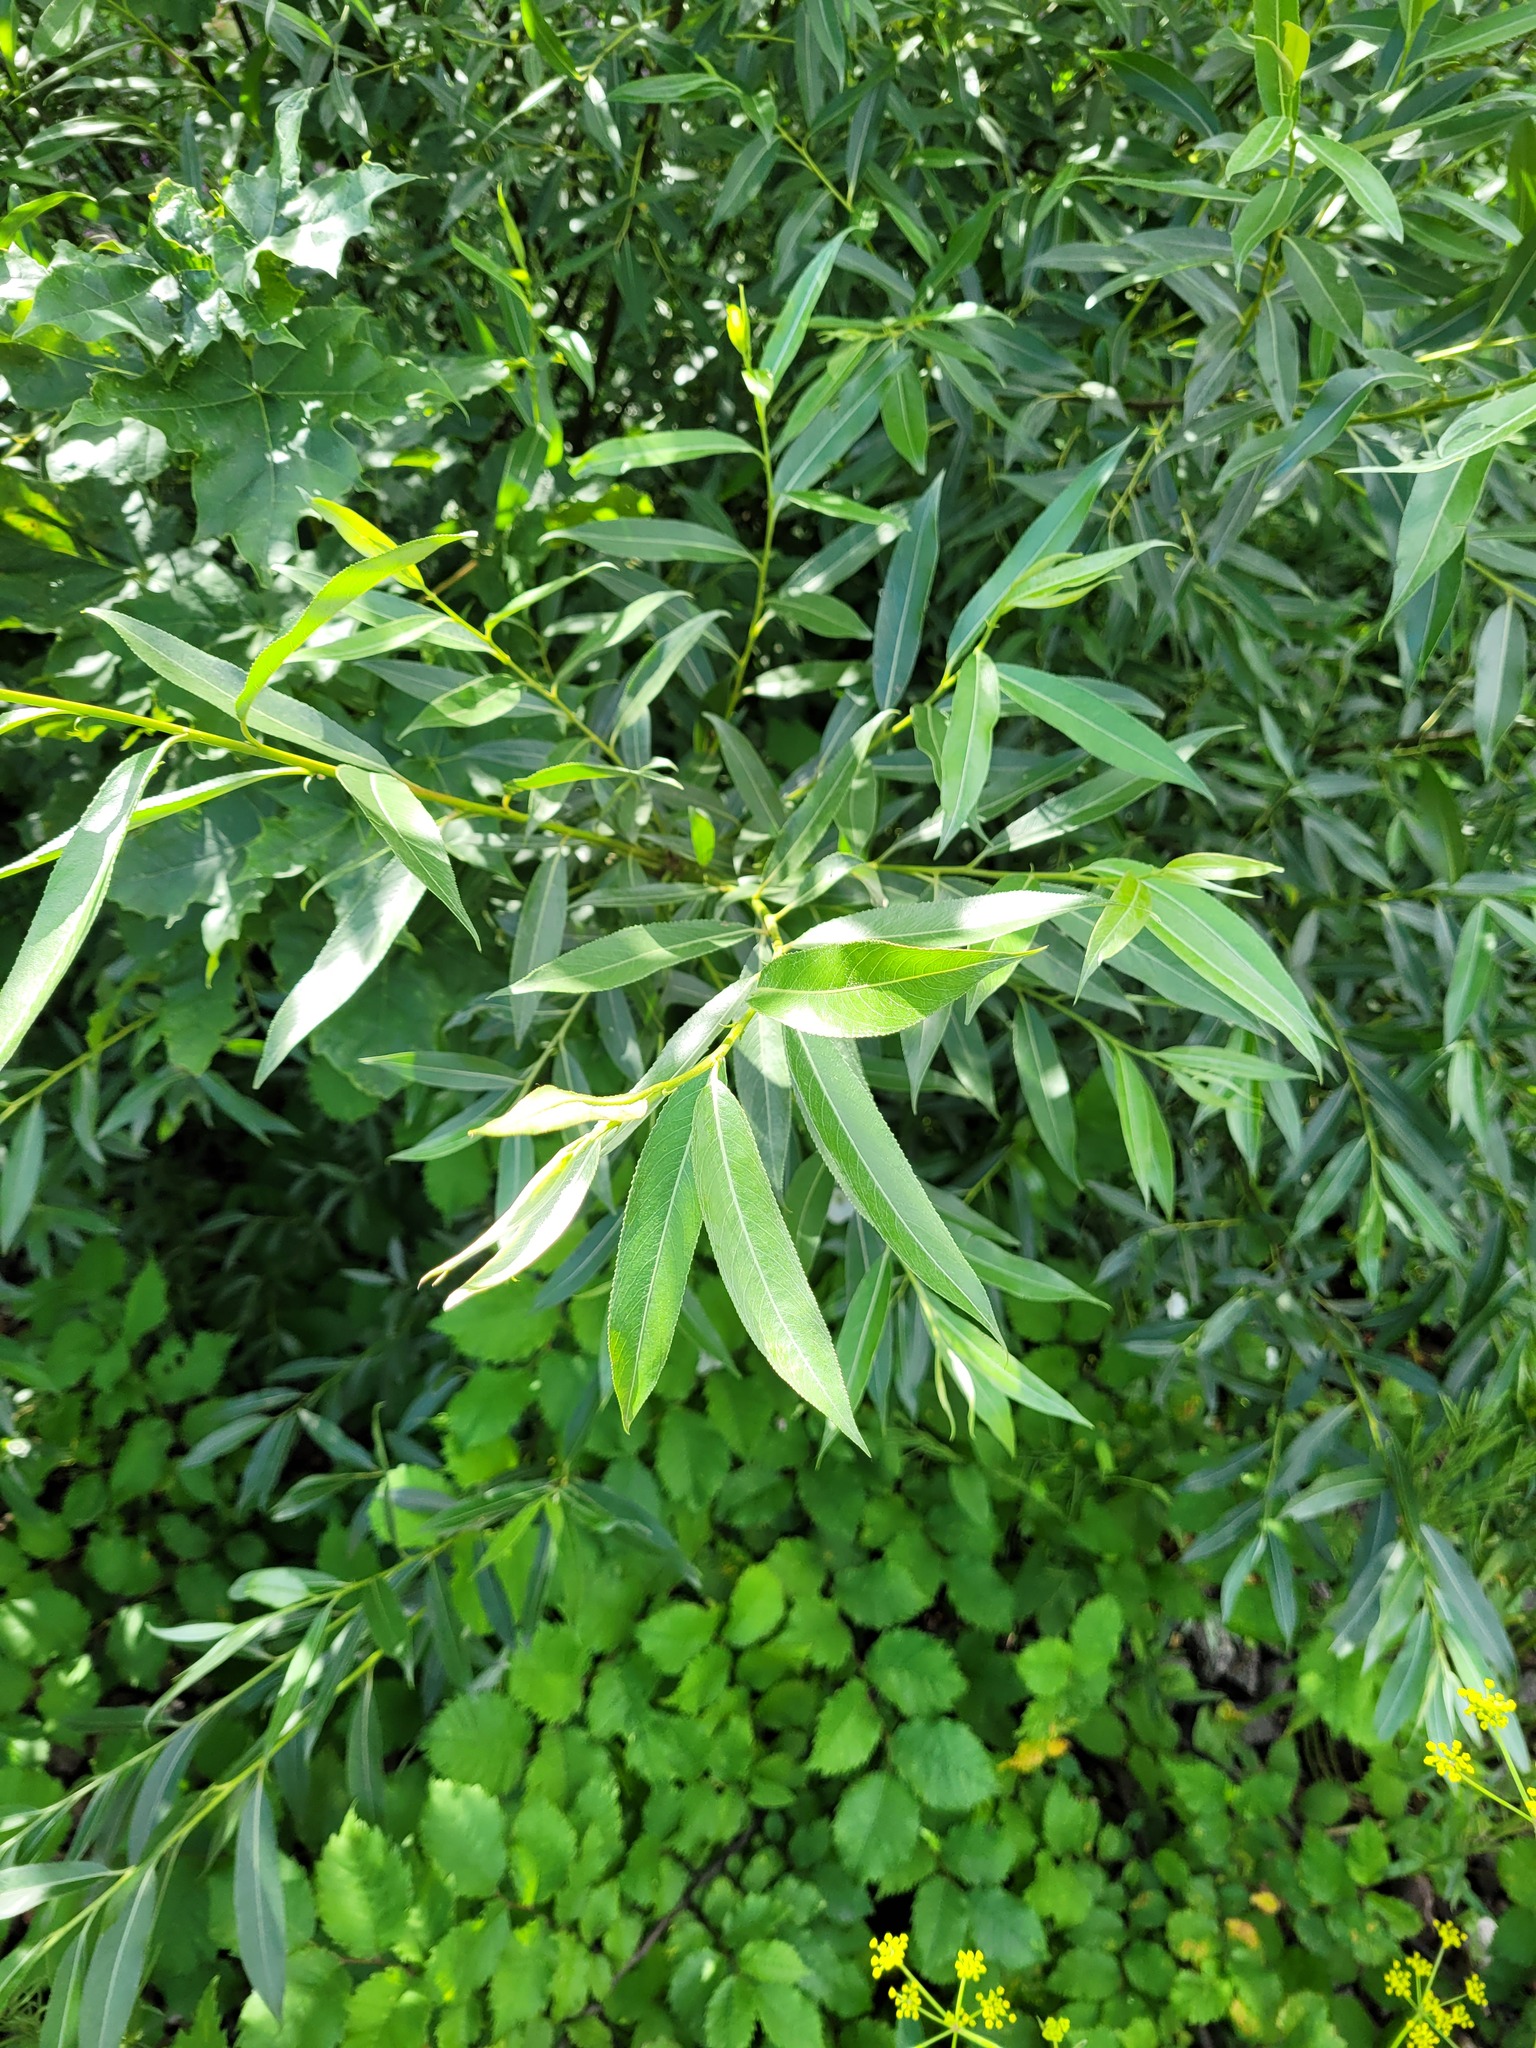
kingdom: Plantae
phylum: Tracheophyta
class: Magnoliopsida
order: Malpighiales
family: Salicaceae
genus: Salix
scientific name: Salix fragilis
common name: Crack willow
